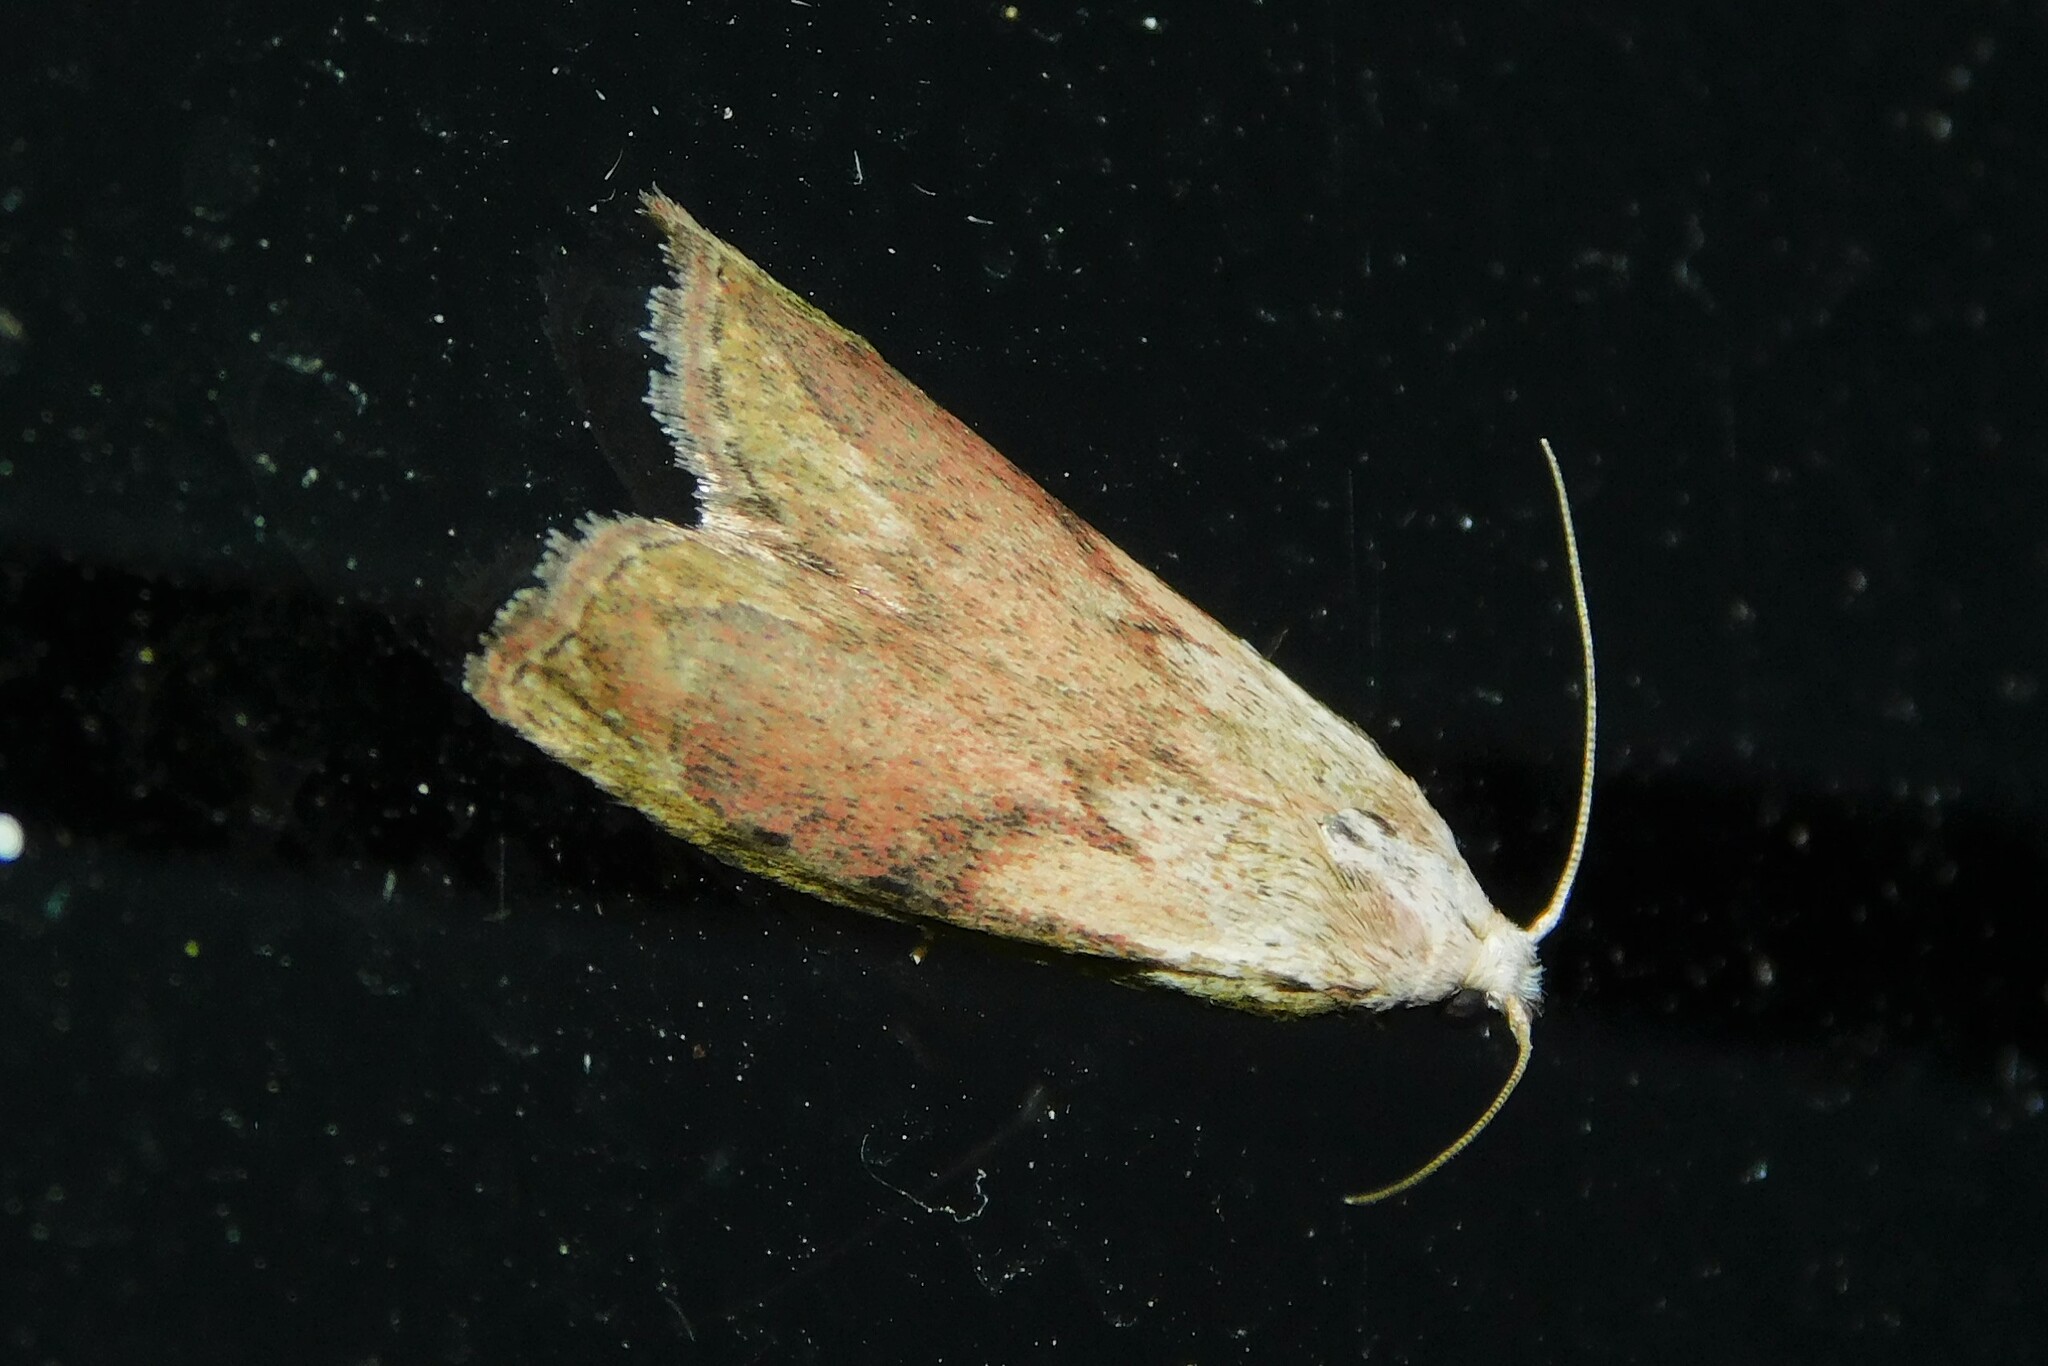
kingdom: Animalia
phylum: Arthropoda
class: Insecta
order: Lepidoptera
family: Pyralidae
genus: Aphomia
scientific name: Aphomia sociella
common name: Bee moth
